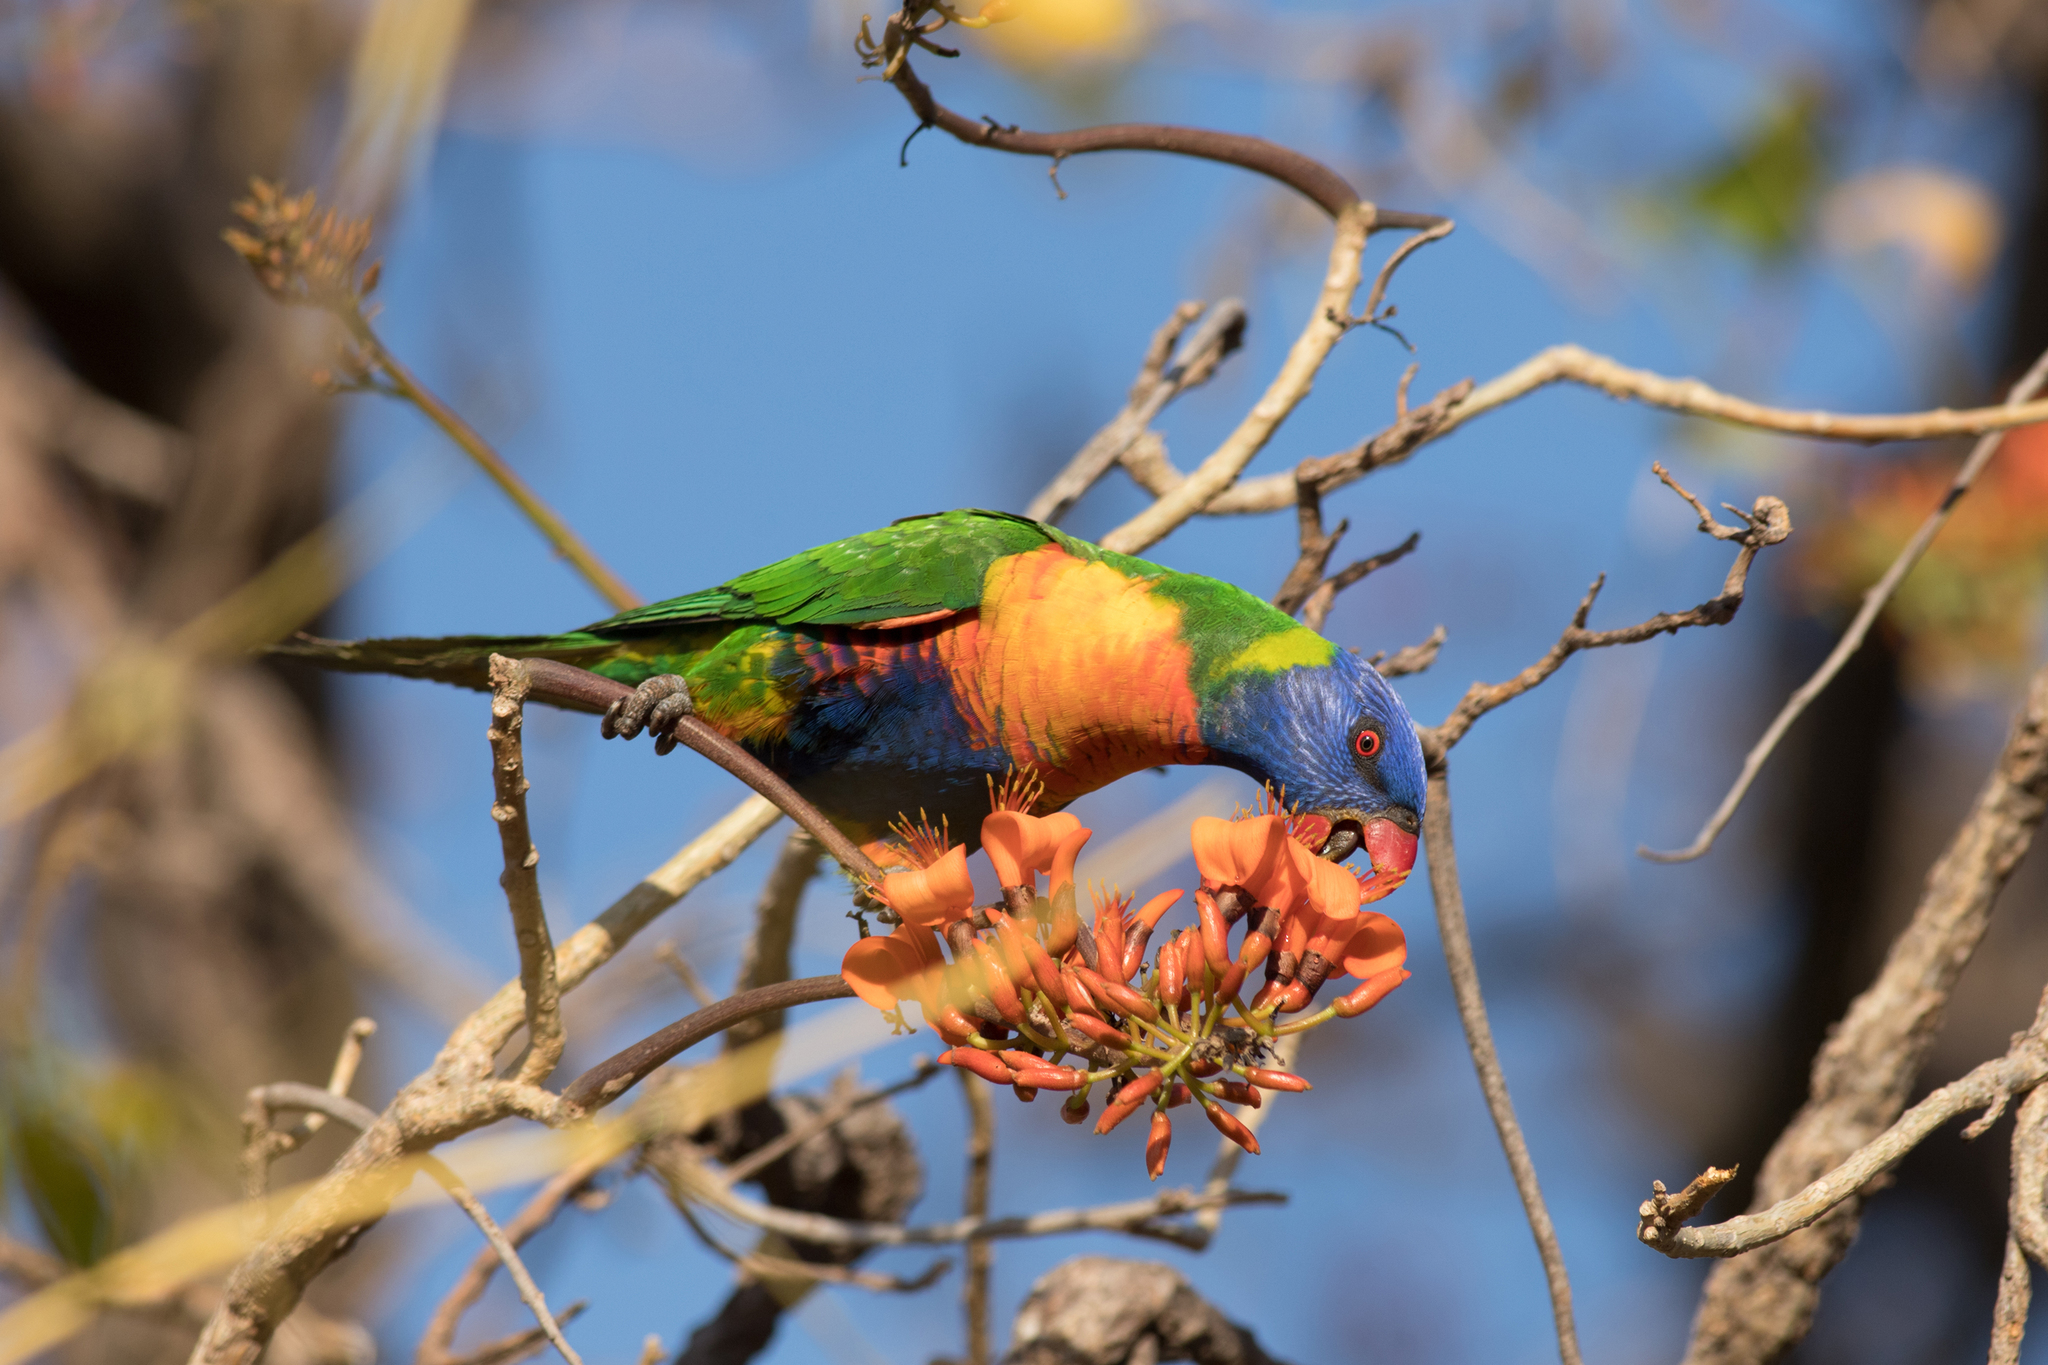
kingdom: Animalia
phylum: Chordata
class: Aves
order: Psittaciformes
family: Psittacidae
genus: Trichoglossus
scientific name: Trichoglossus haematodus
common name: Coconut lorikeet
